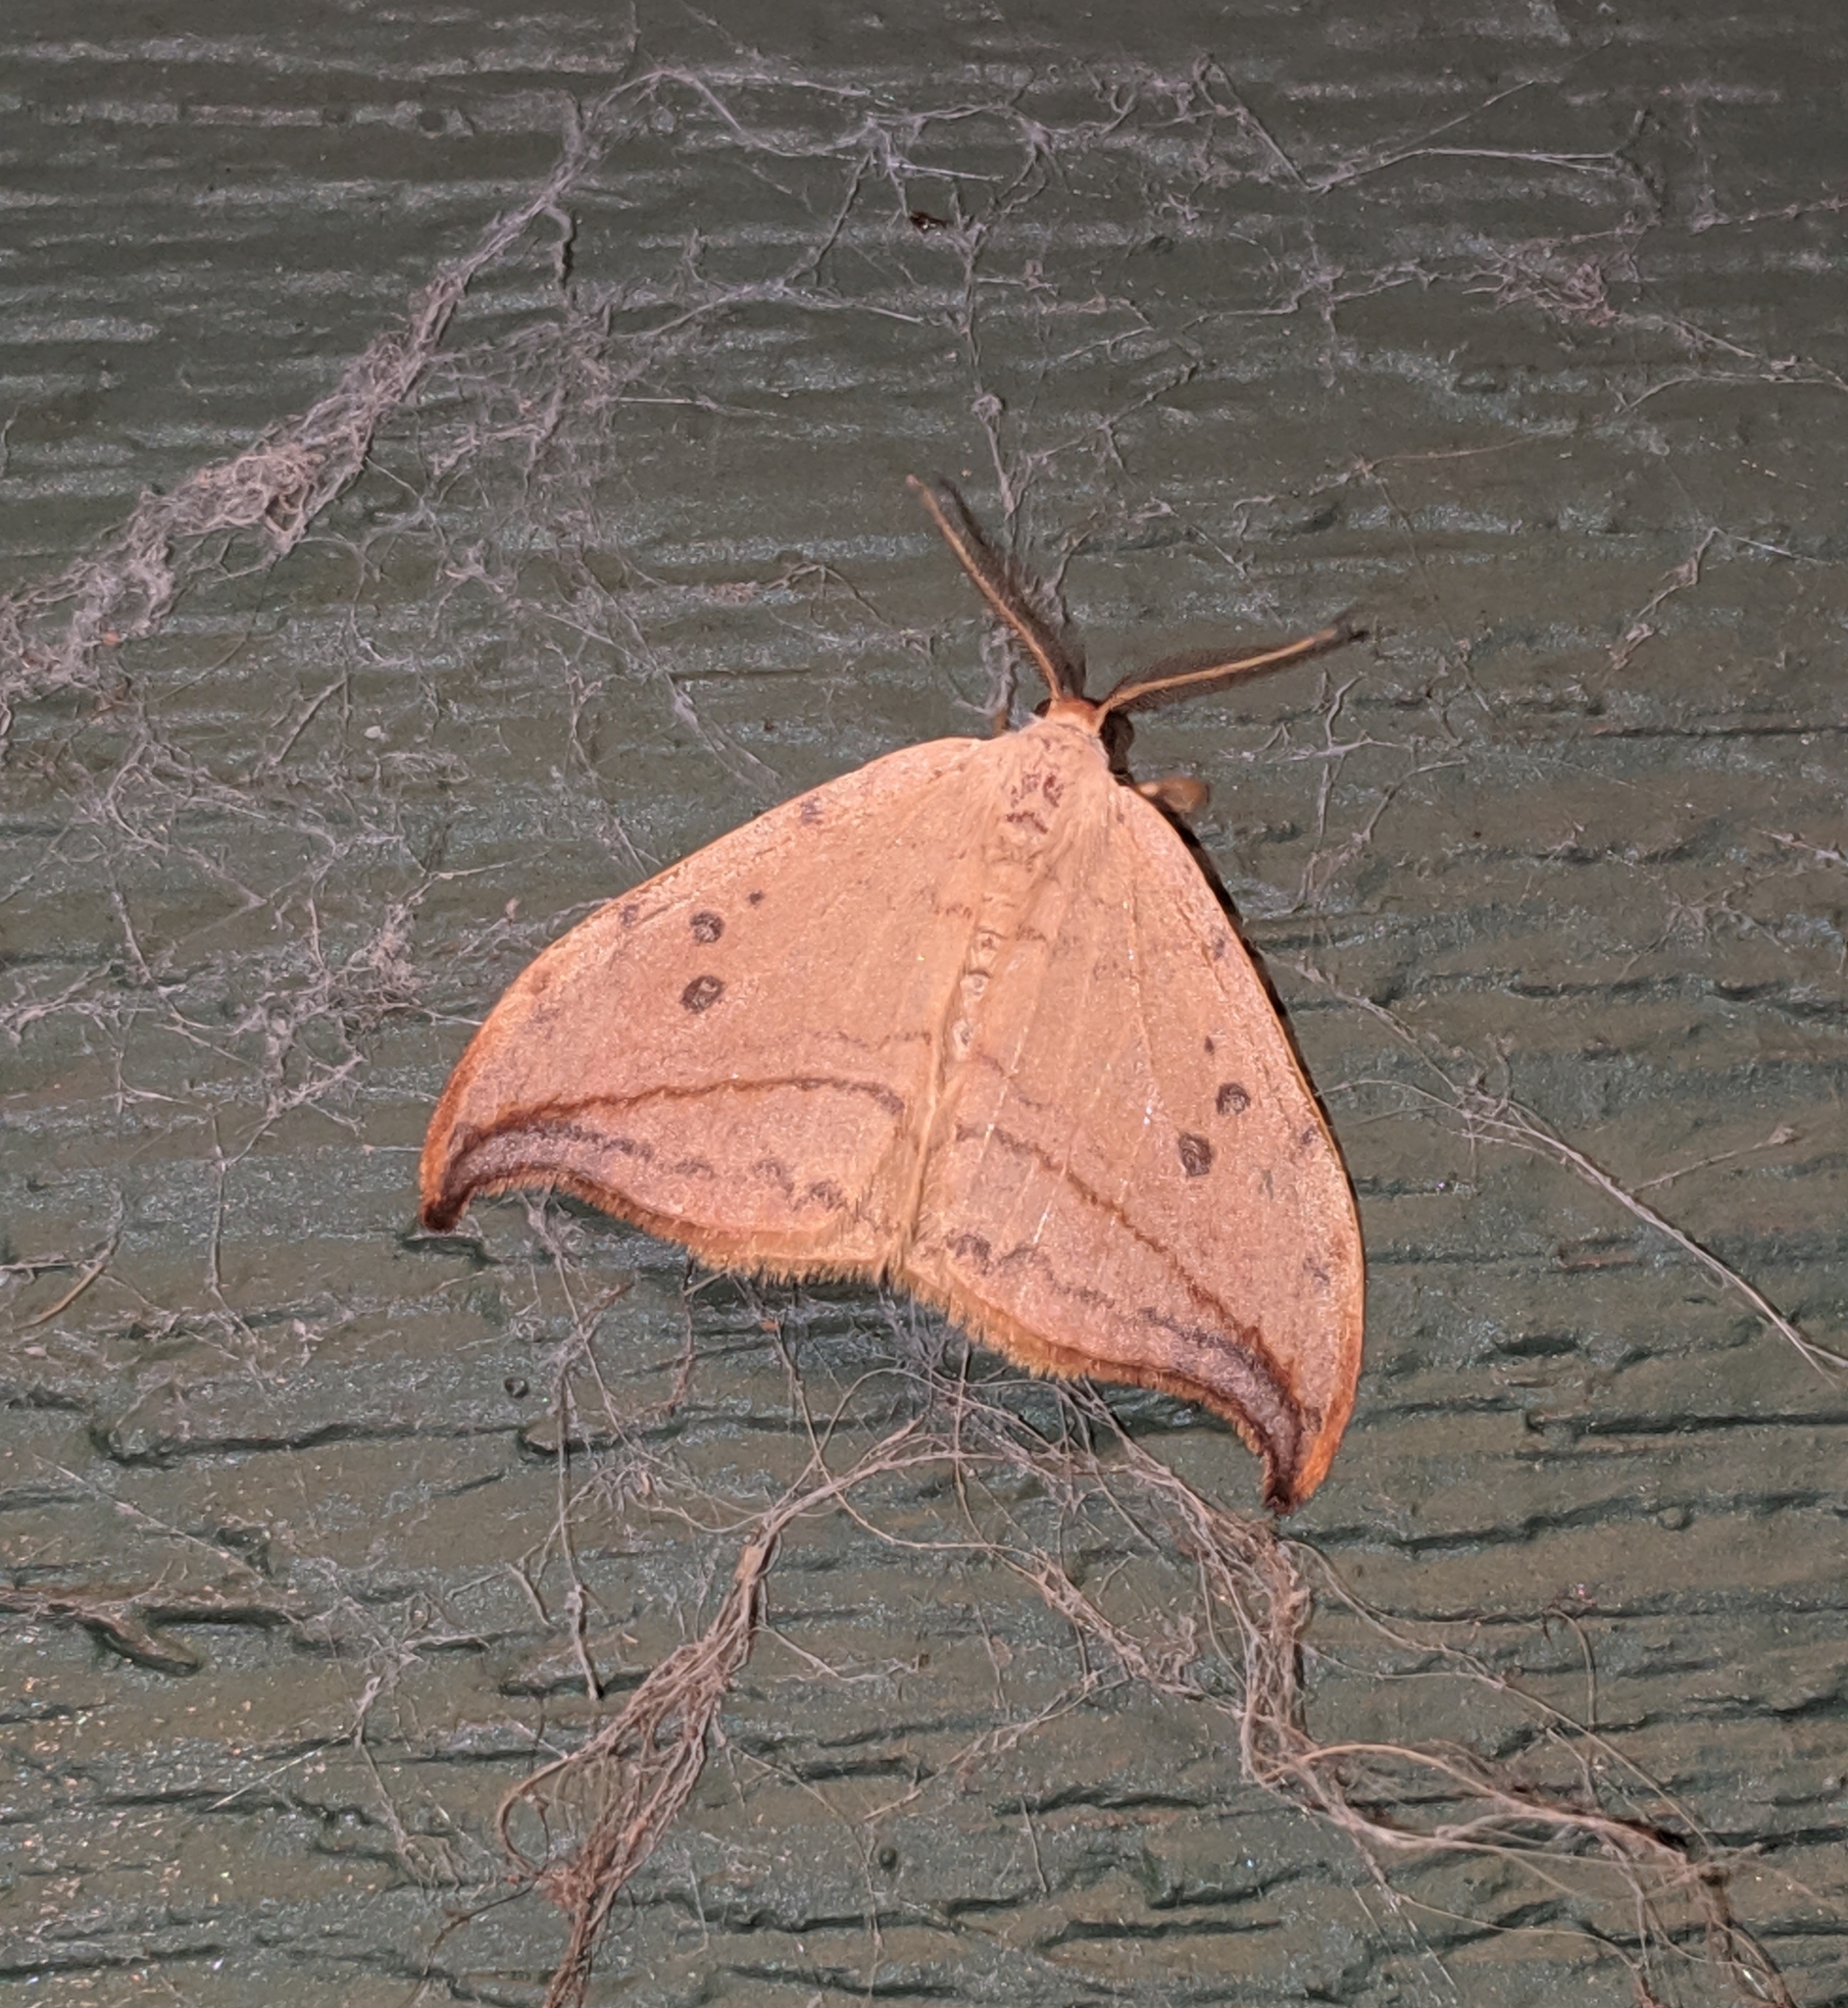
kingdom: Animalia
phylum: Arthropoda
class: Insecta
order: Lepidoptera
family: Drepanidae
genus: Drepana
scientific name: Drepana arcuata
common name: Arched hooktip moth
